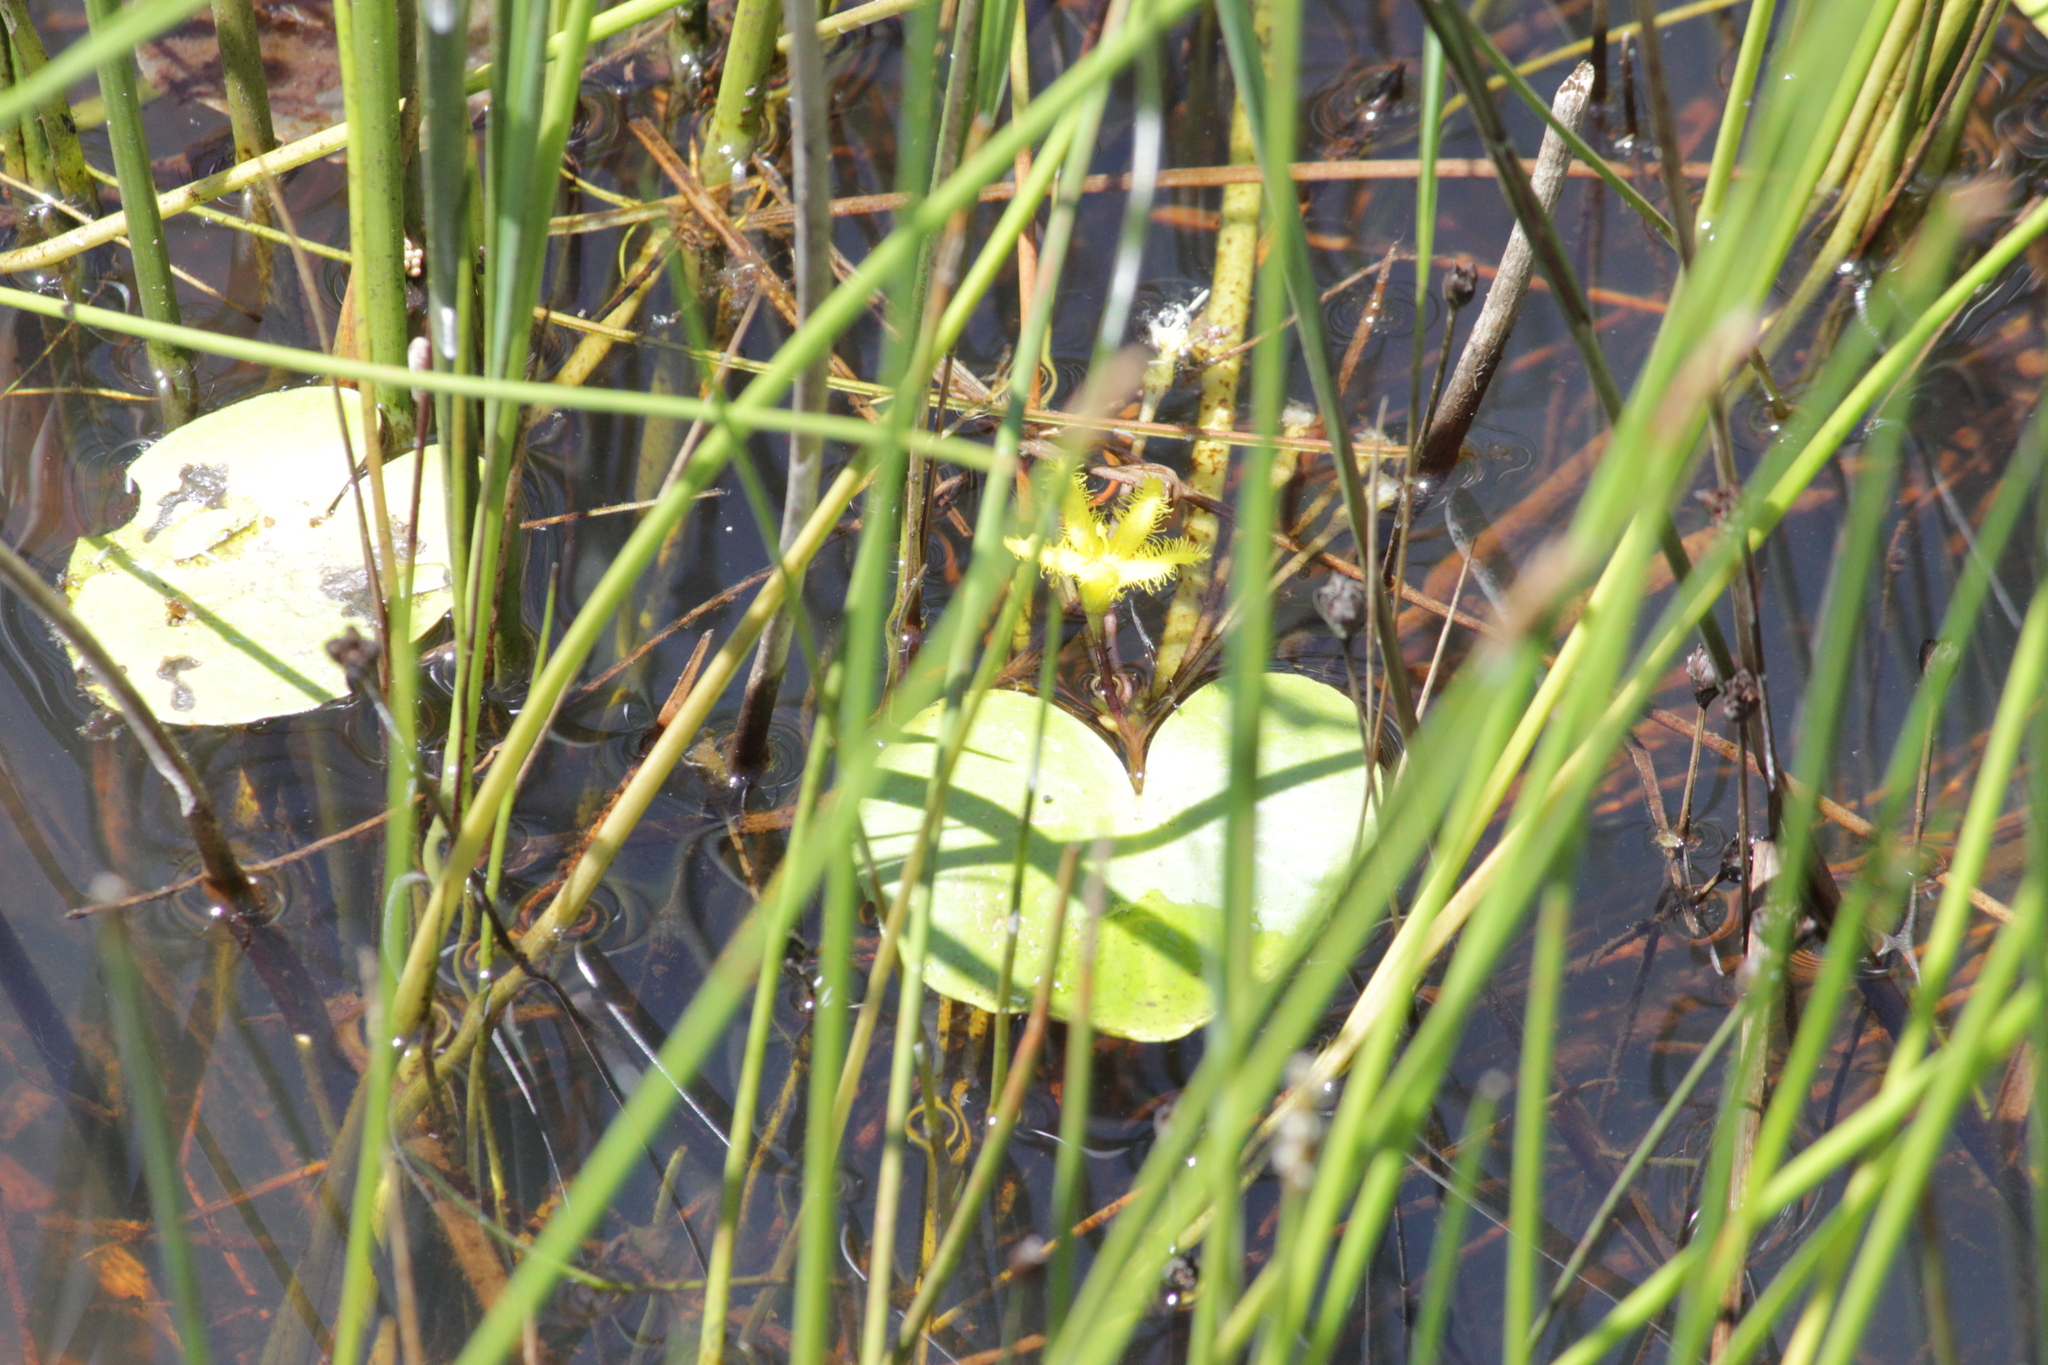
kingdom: Plantae
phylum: Tracheophyta
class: Magnoliopsida
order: Asterales
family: Menyanthaceae
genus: Nymphoides
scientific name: Nymphoides thunbergiana
